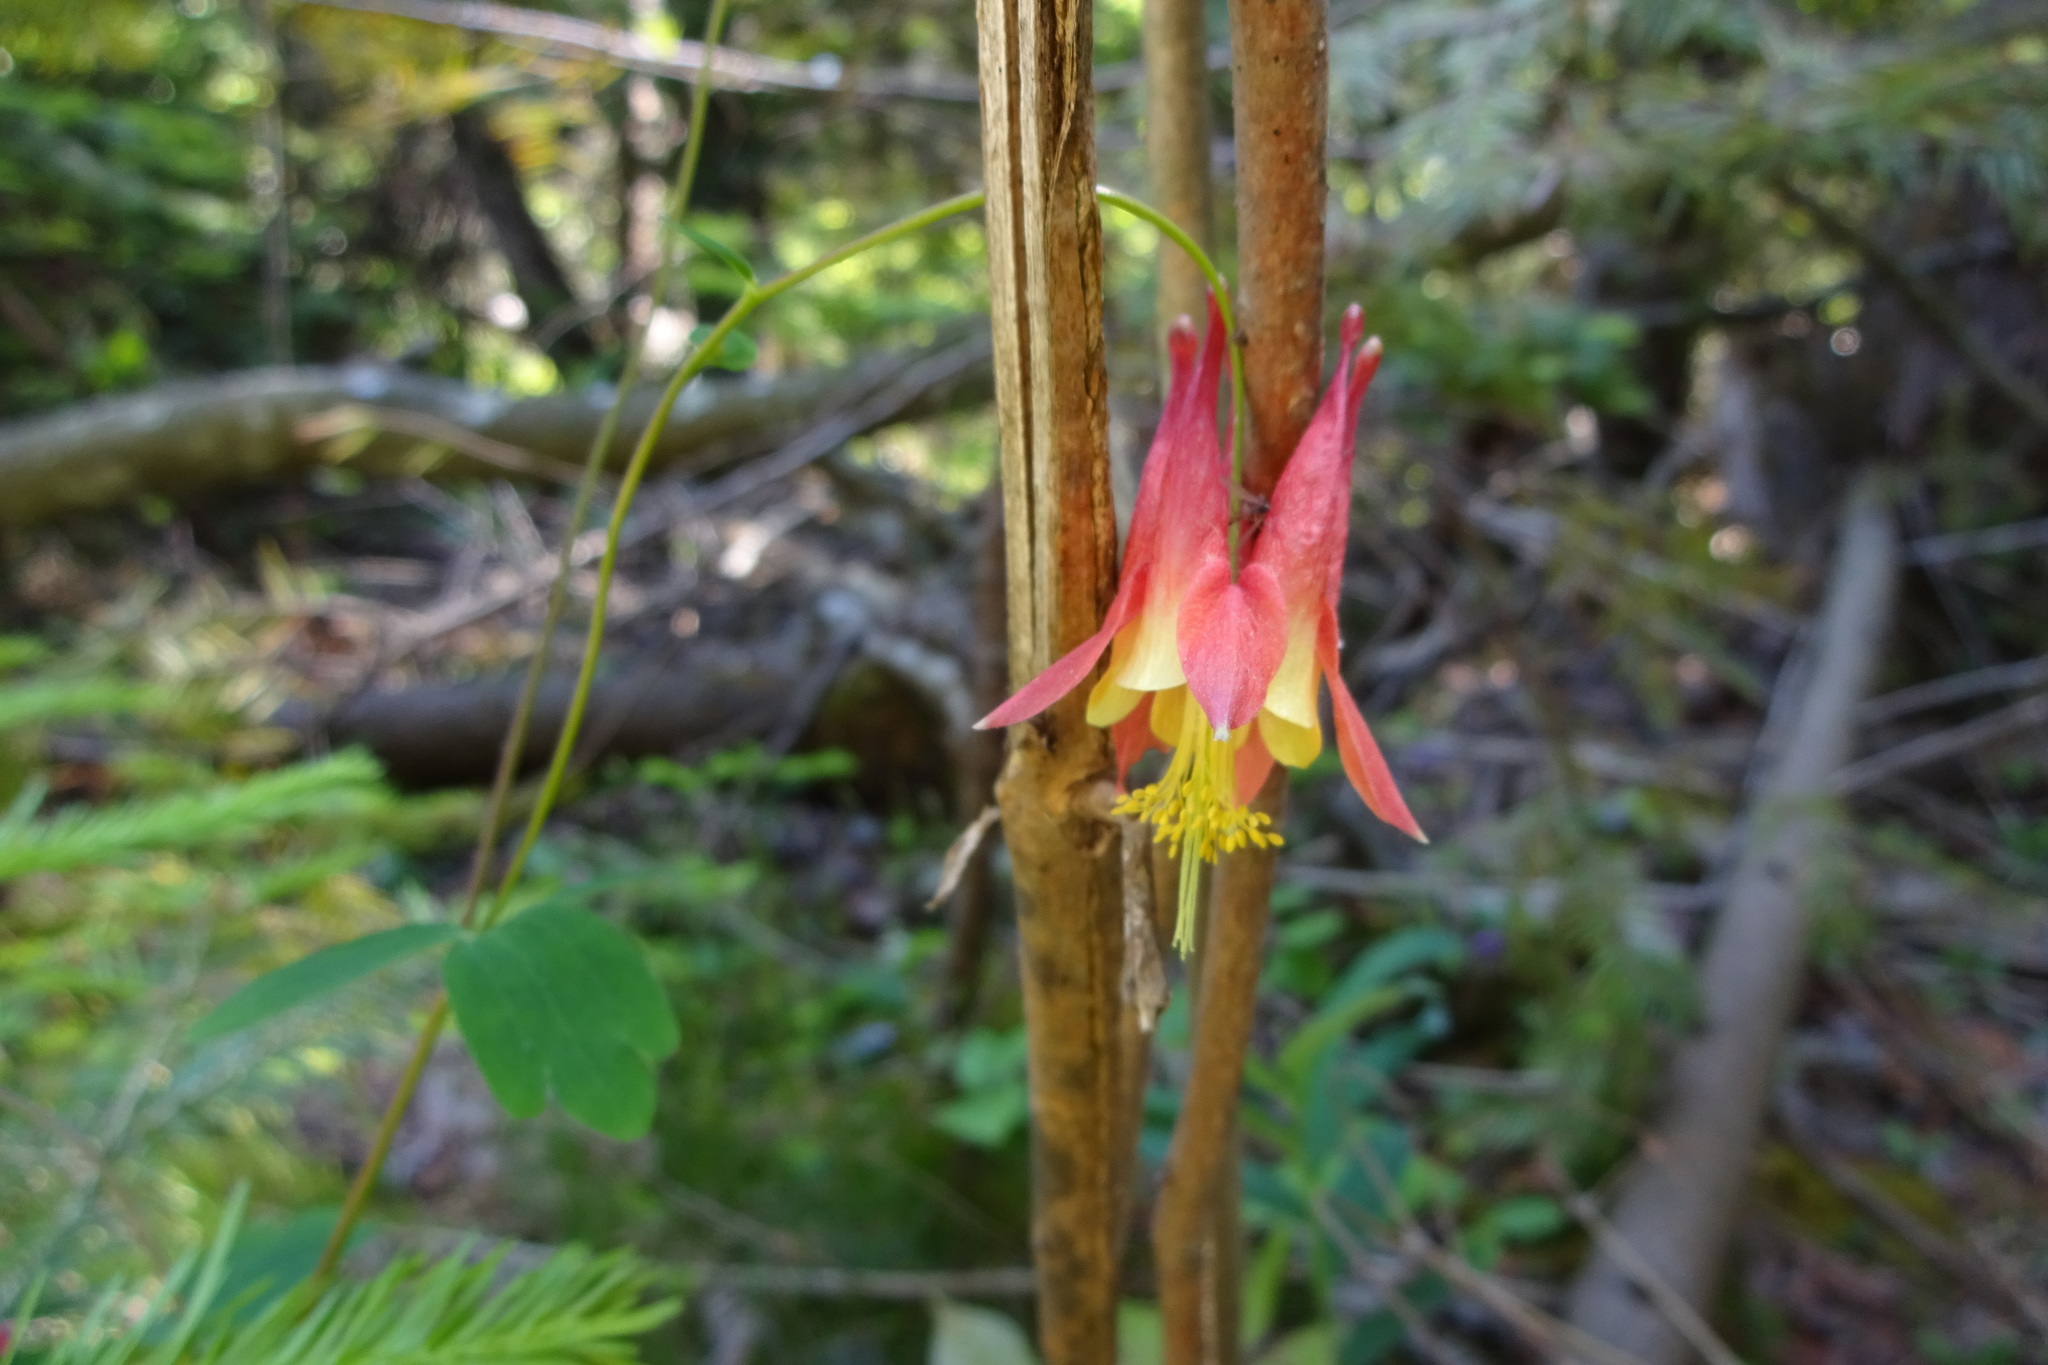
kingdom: Plantae
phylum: Tracheophyta
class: Magnoliopsida
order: Ranunculales
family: Ranunculaceae
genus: Aquilegia
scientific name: Aquilegia canadensis
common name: American columbine
